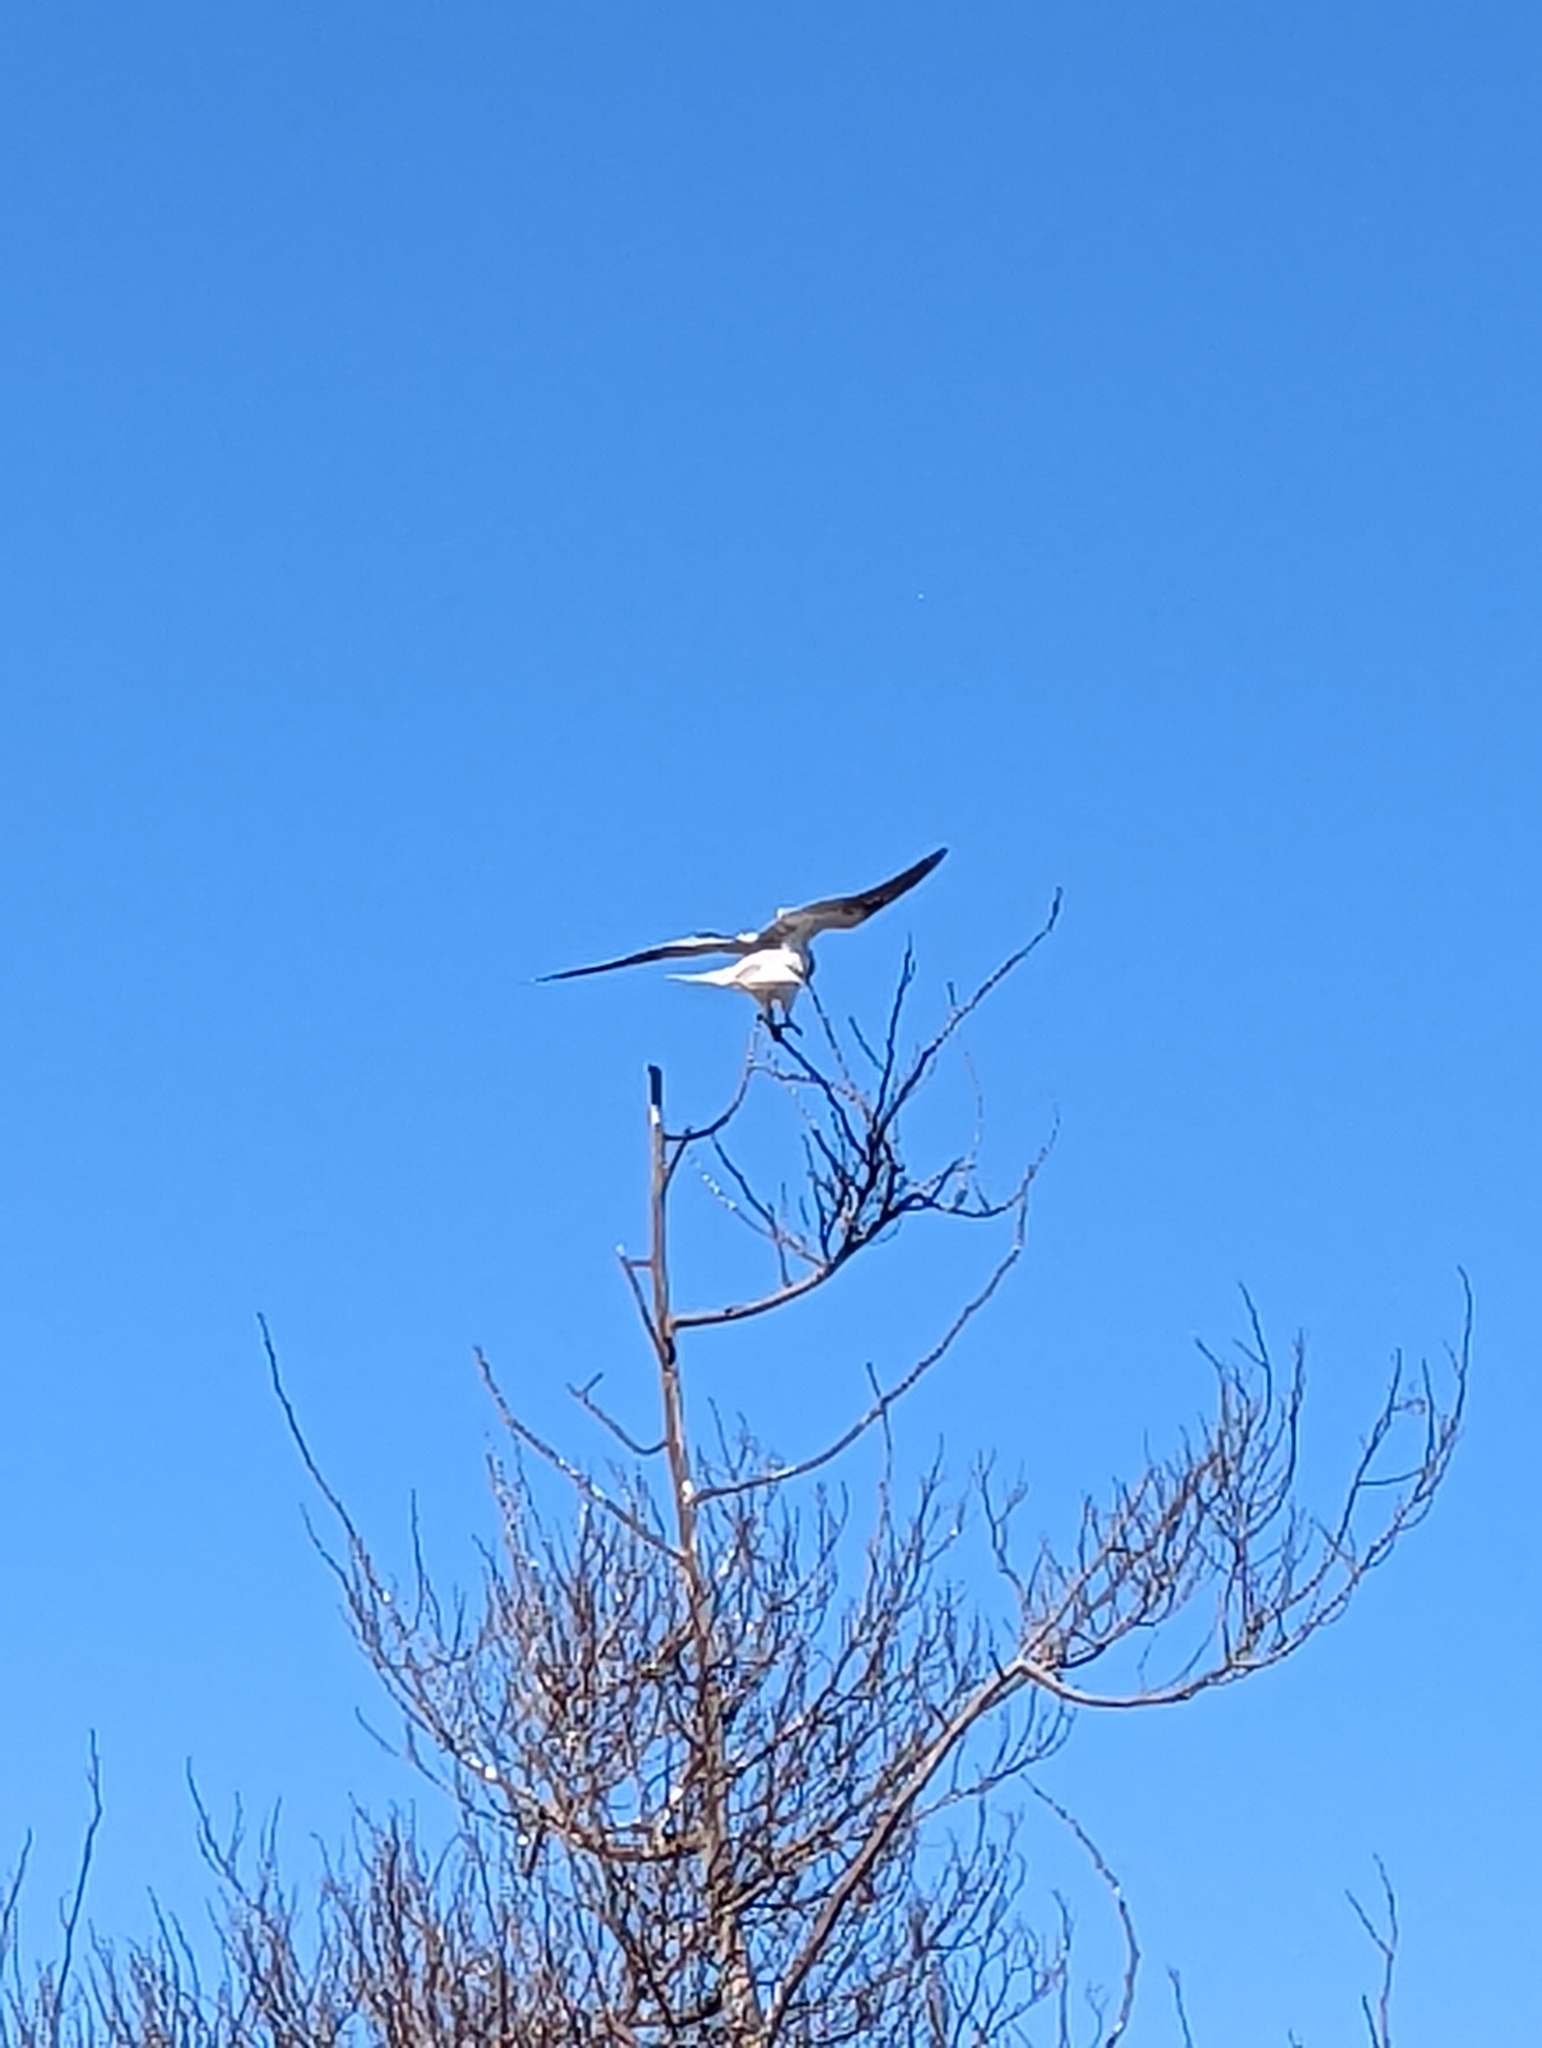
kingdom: Animalia
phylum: Chordata
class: Aves
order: Accipitriformes
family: Accipitridae
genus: Elanus
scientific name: Elanus leucurus
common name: White-tailed kite
